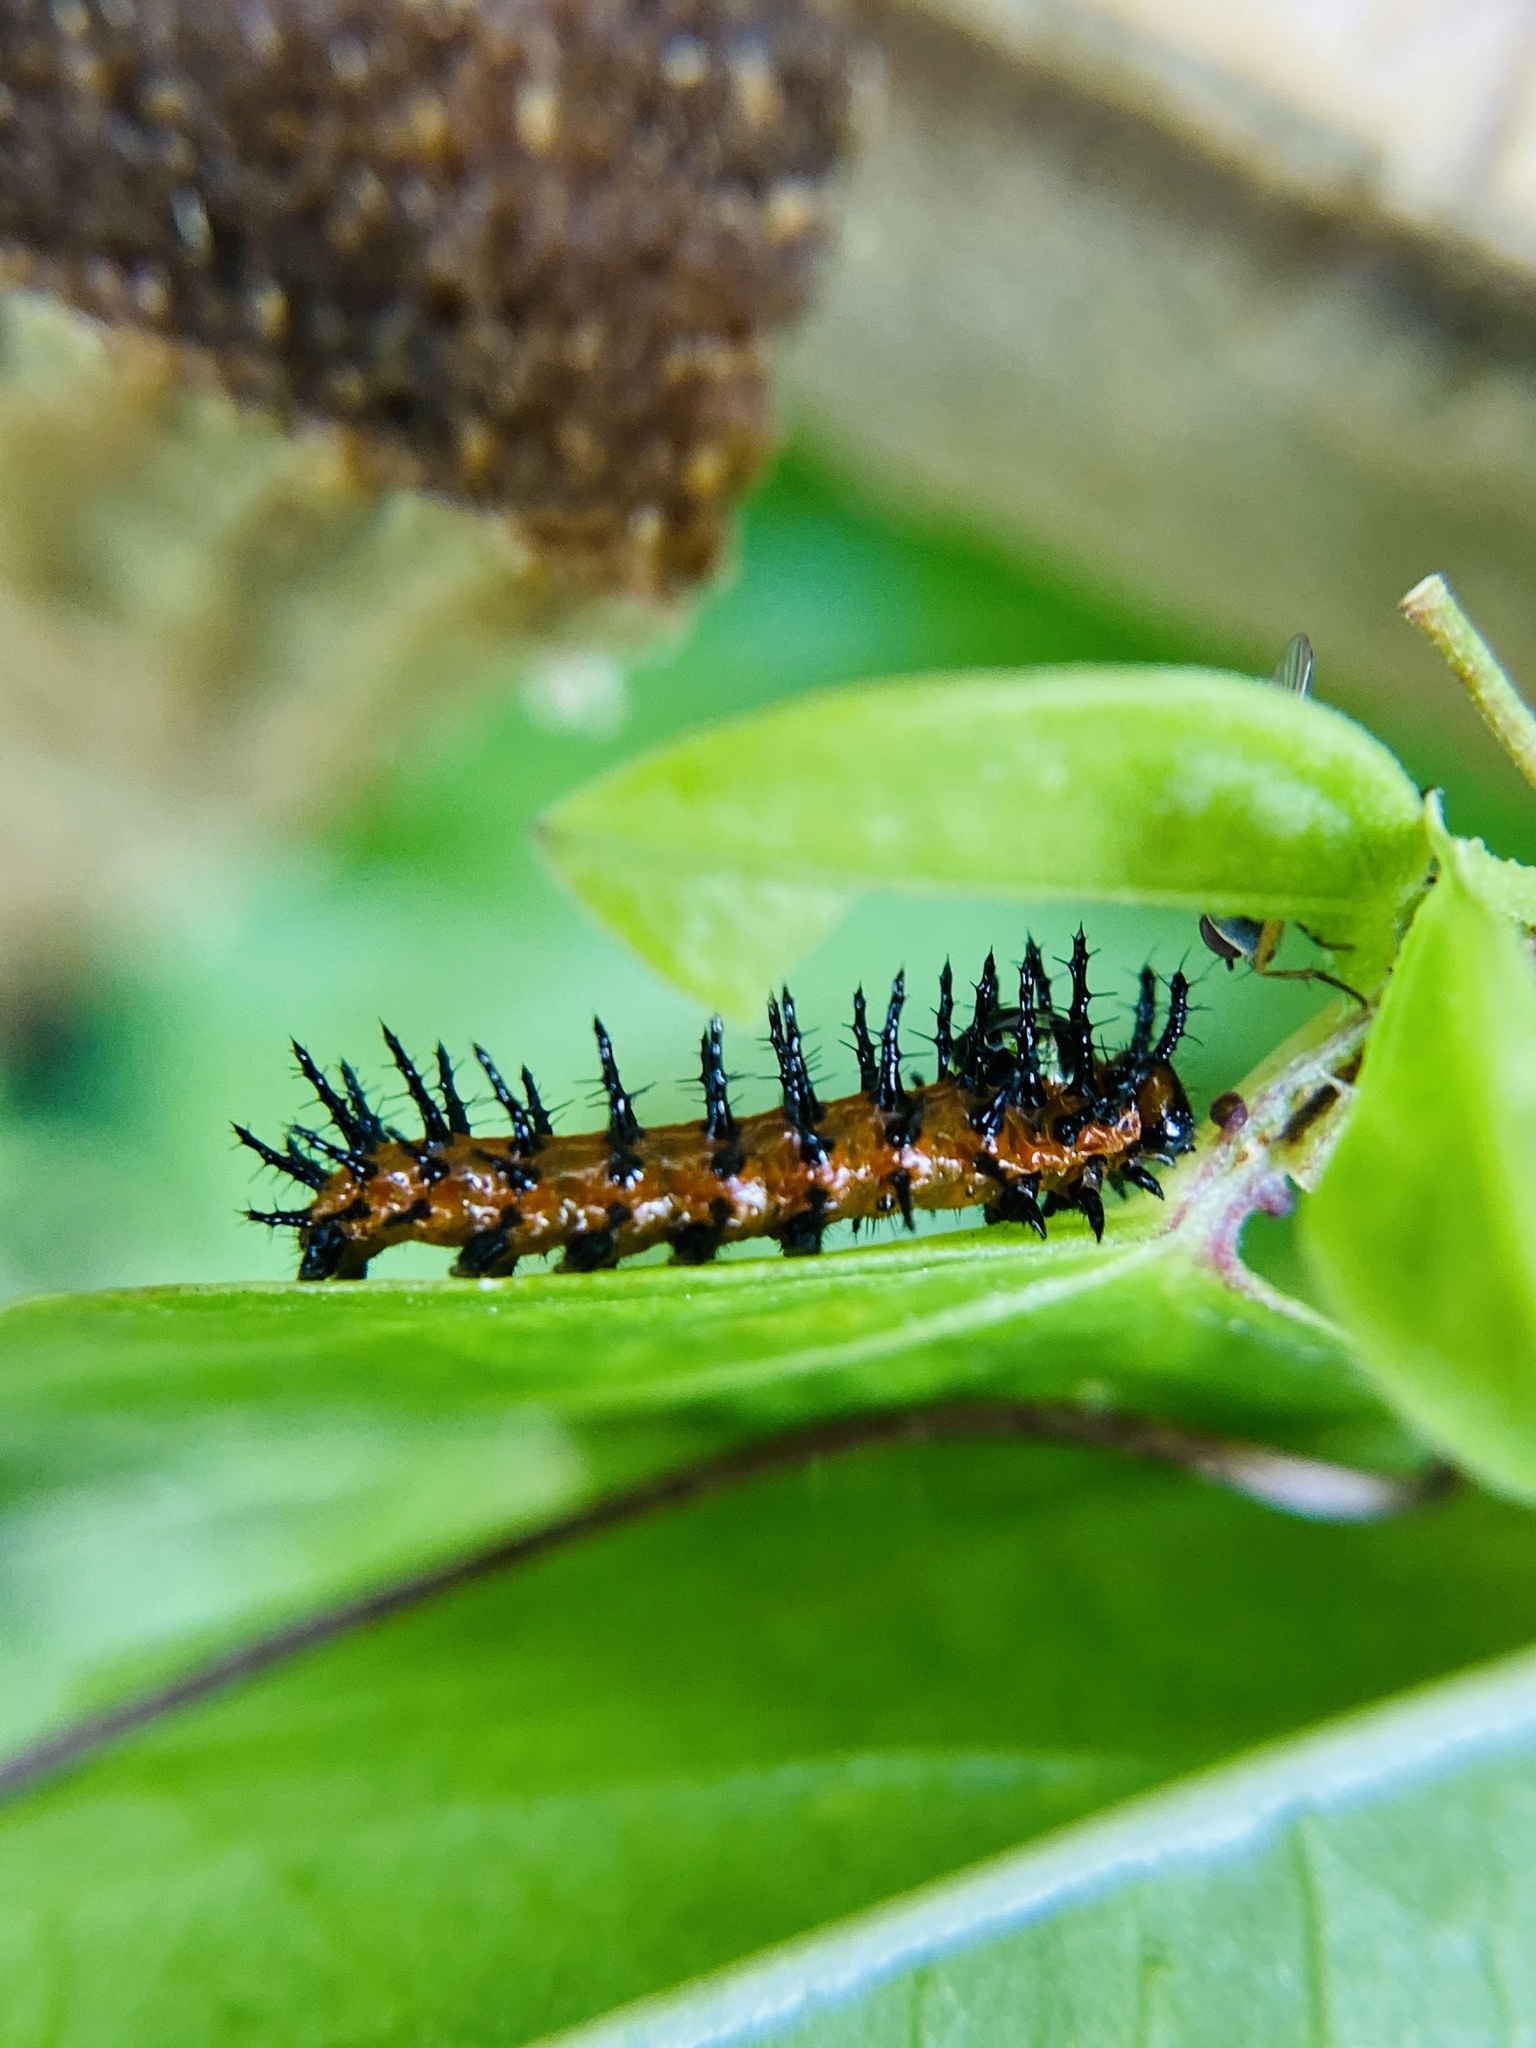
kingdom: Animalia
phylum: Arthropoda
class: Insecta
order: Lepidoptera
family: Nymphalidae
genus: Dione
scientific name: Dione vanillae
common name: Gulf fritillary
